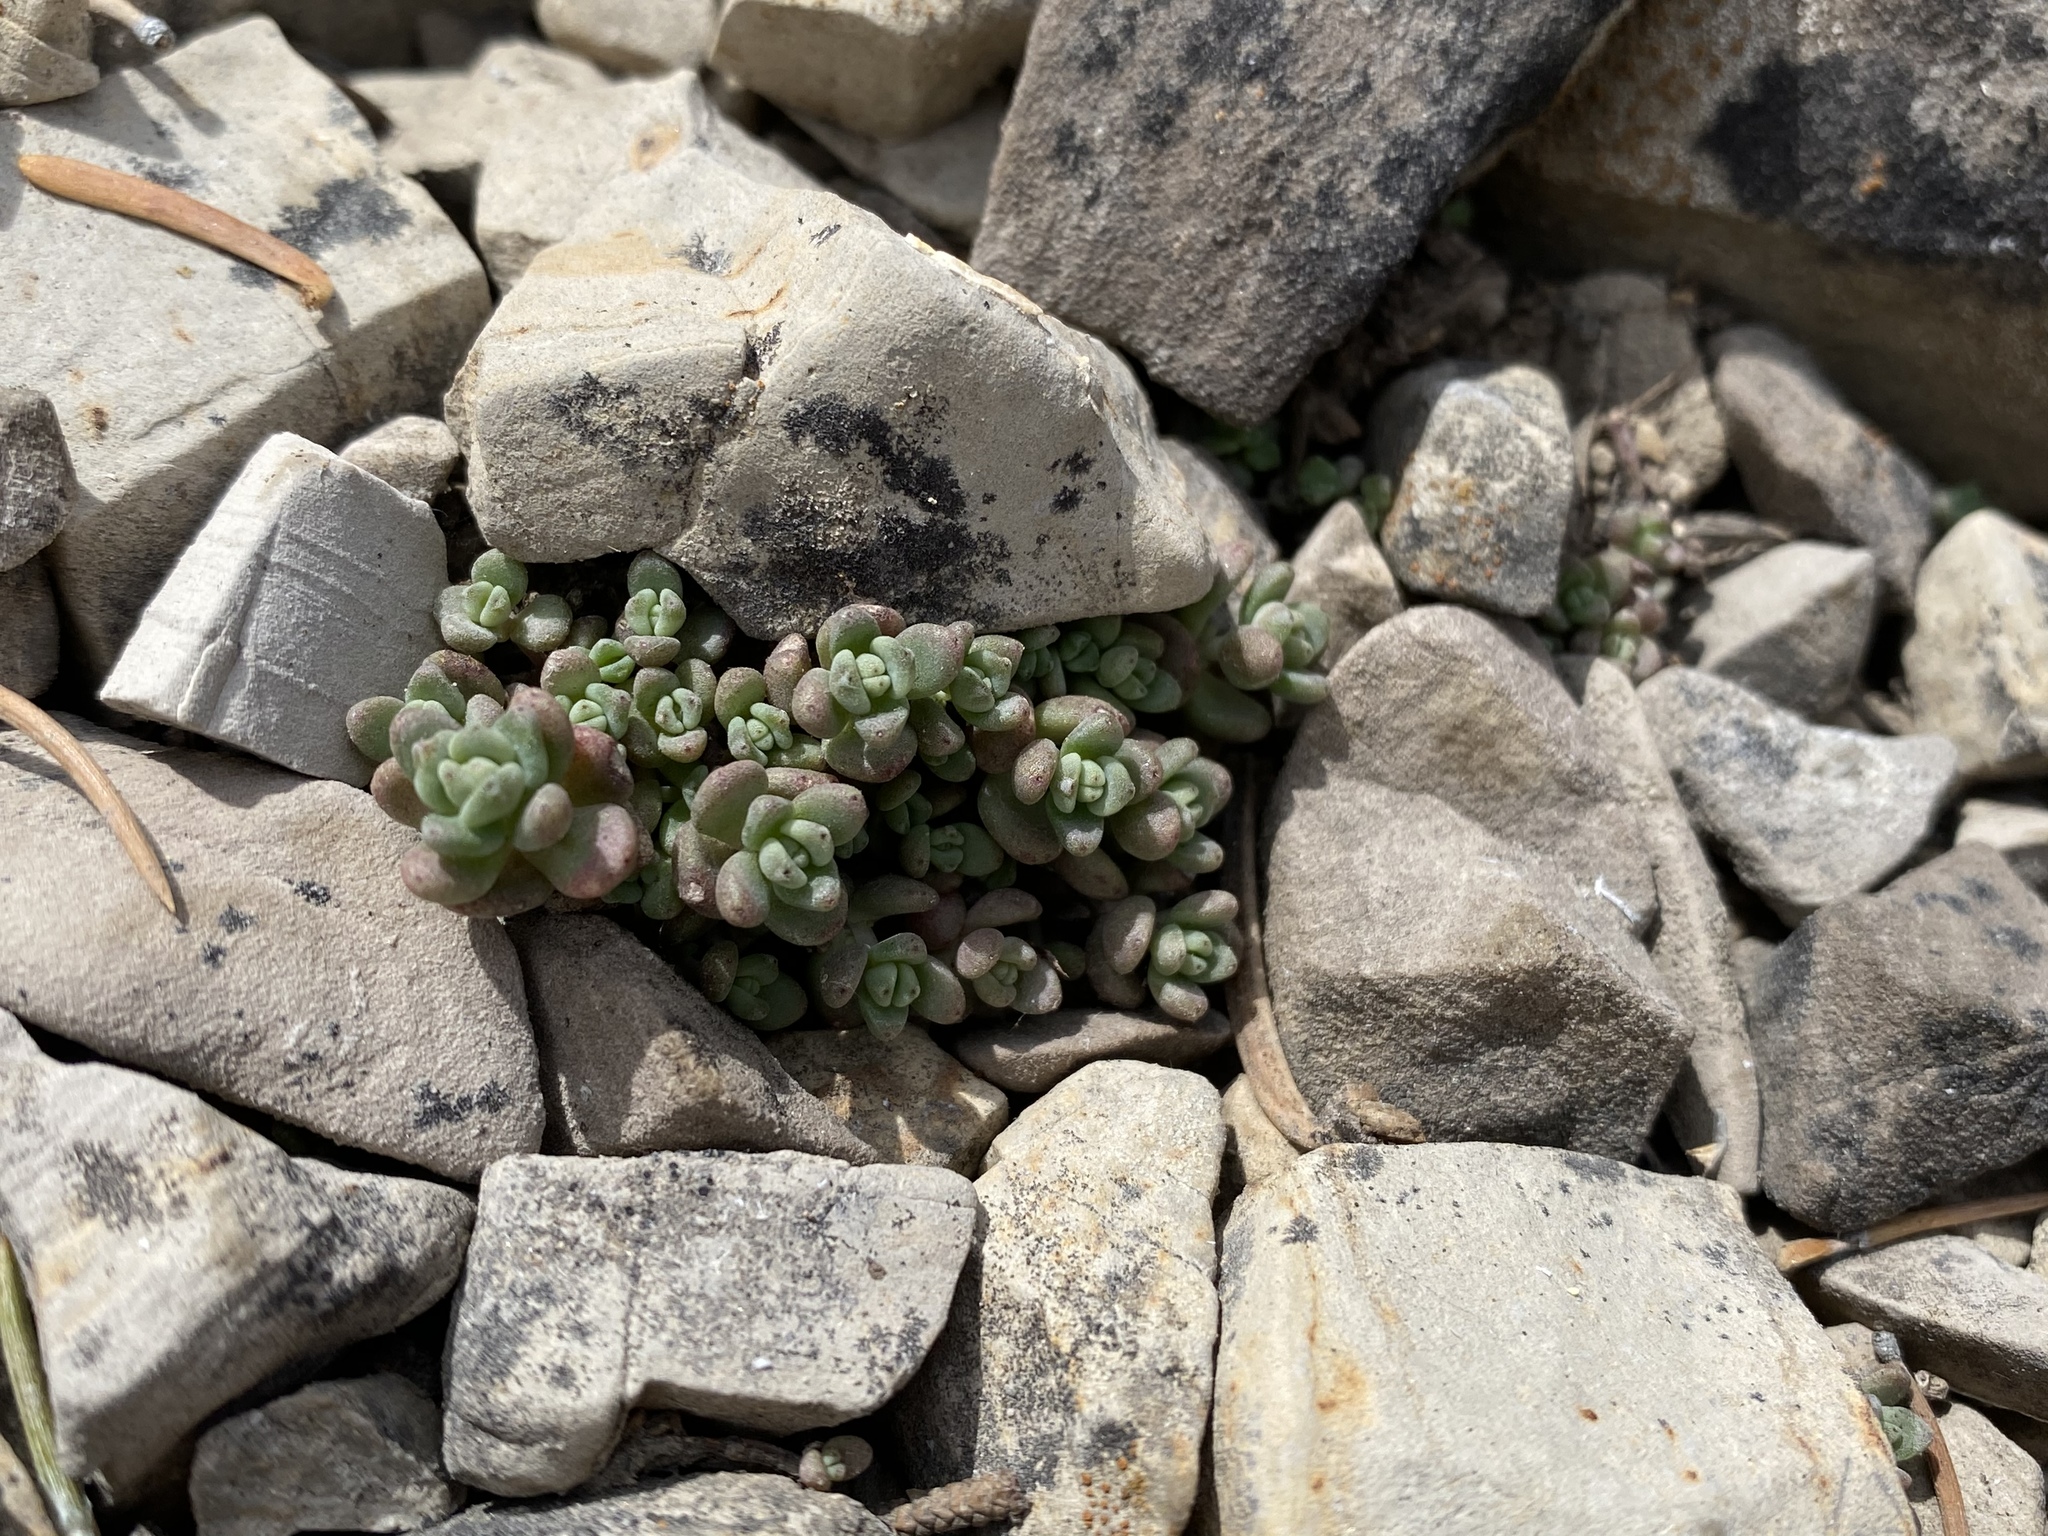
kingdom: Plantae
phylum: Tracheophyta
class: Magnoliopsida
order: Saxifragales
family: Crassulaceae
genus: Sedum
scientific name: Sedum debile
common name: Weak-stem stonecrop
